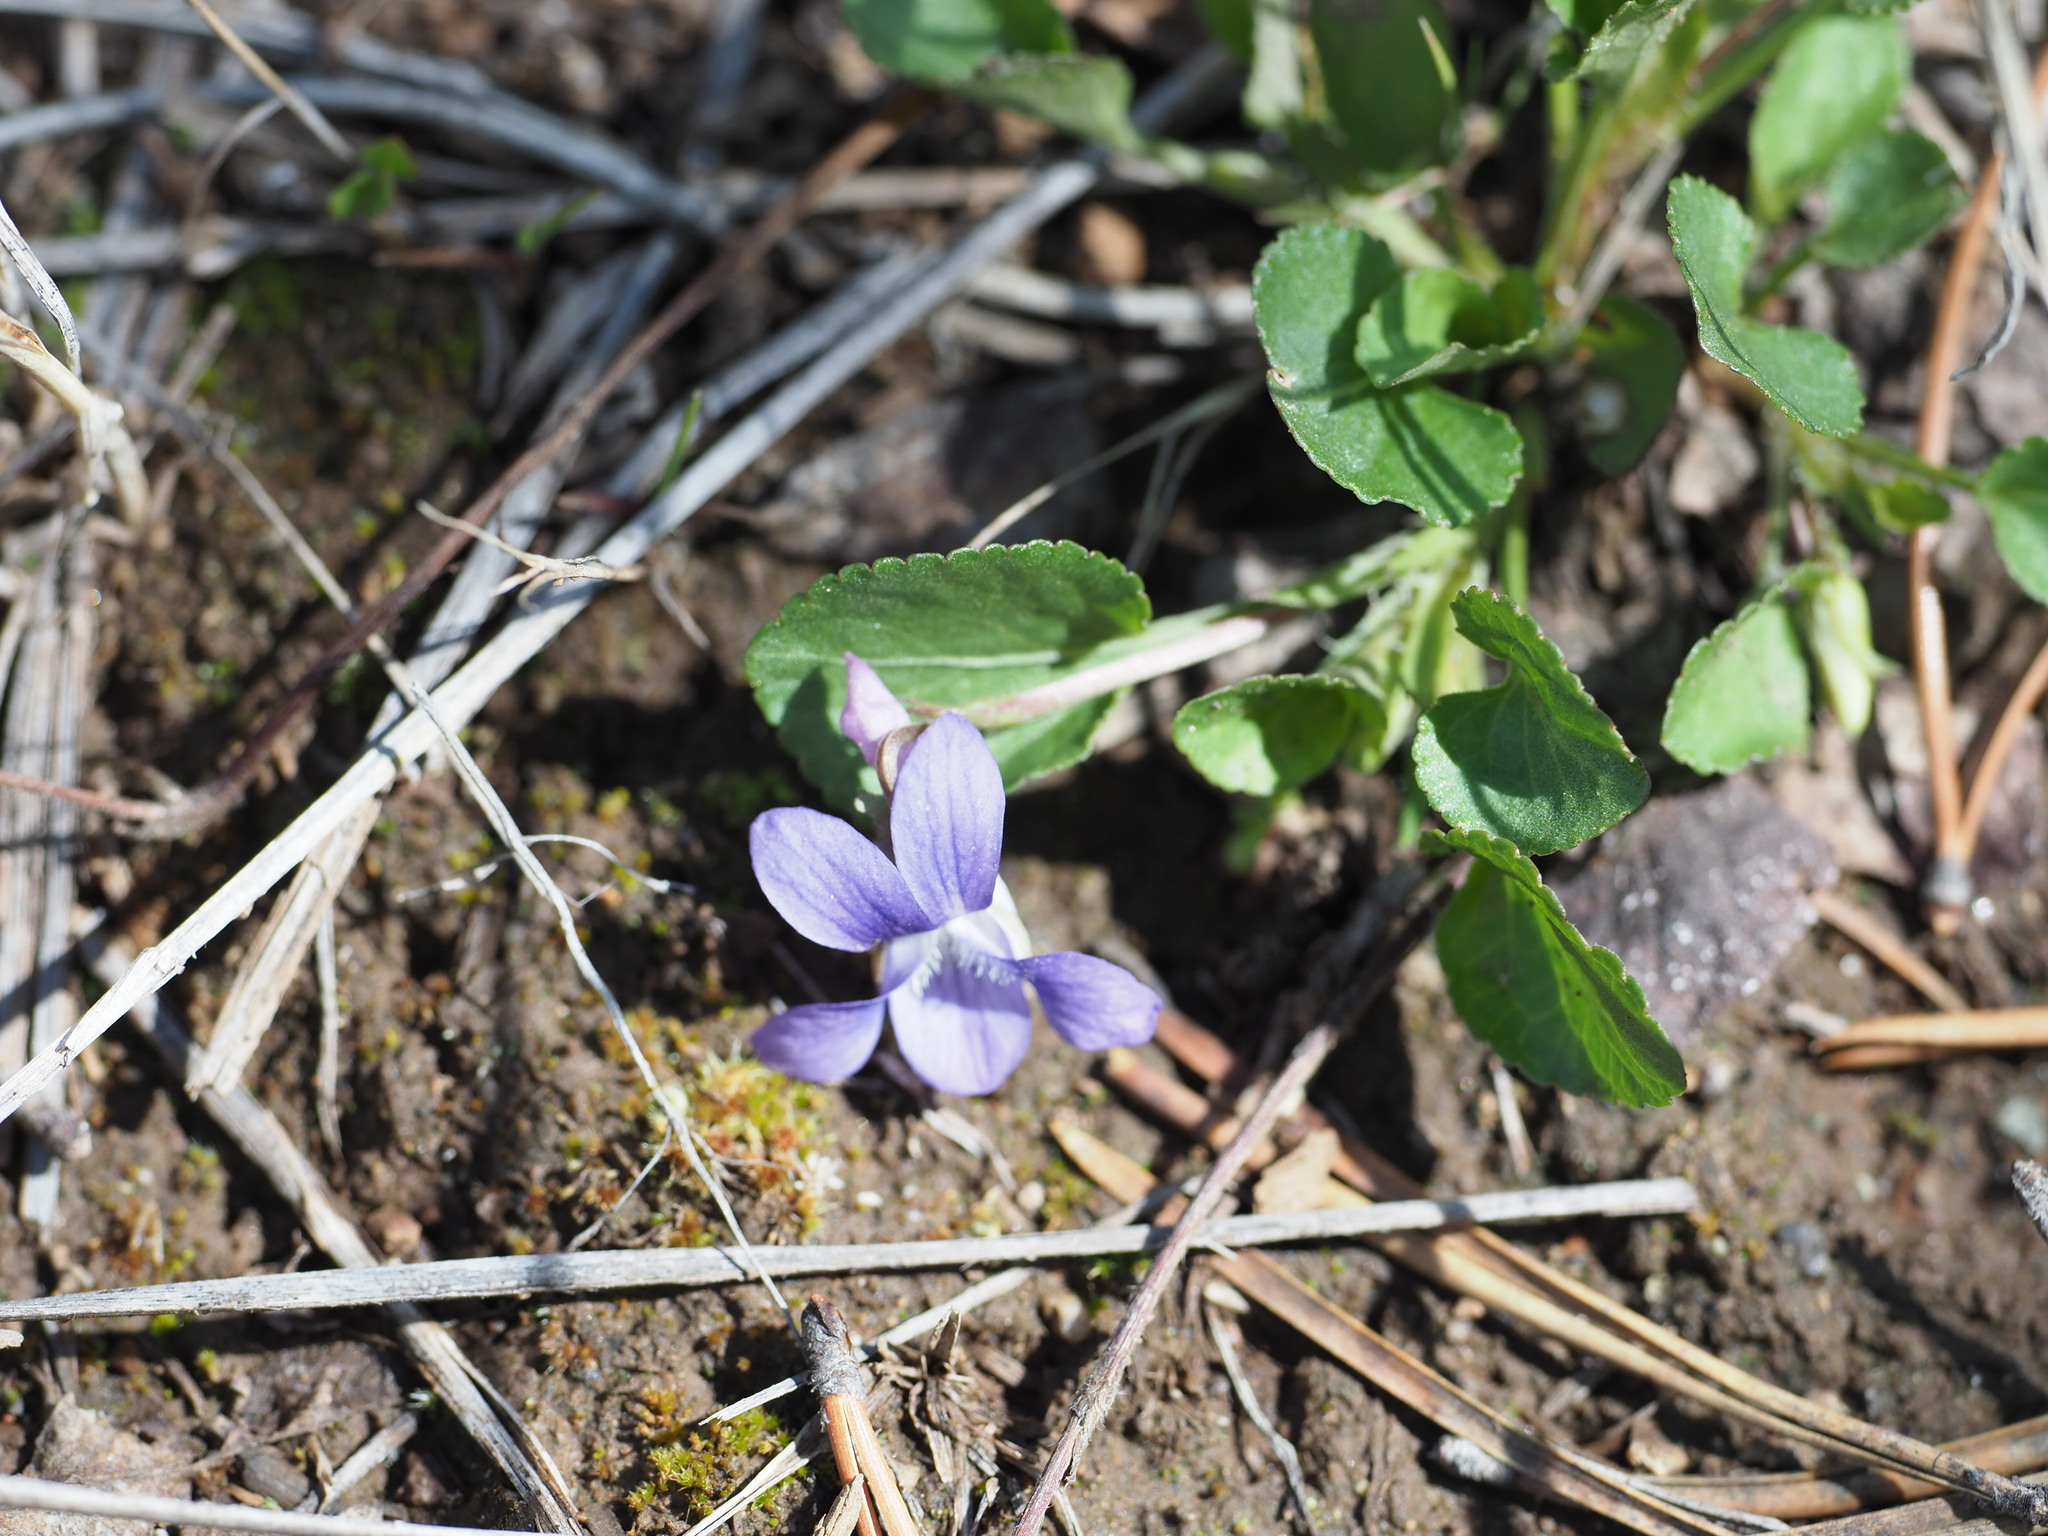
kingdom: Plantae
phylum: Tracheophyta
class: Magnoliopsida
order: Malpighiales
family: Violaceae
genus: Viola
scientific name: Viola adunca
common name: Sand violet
